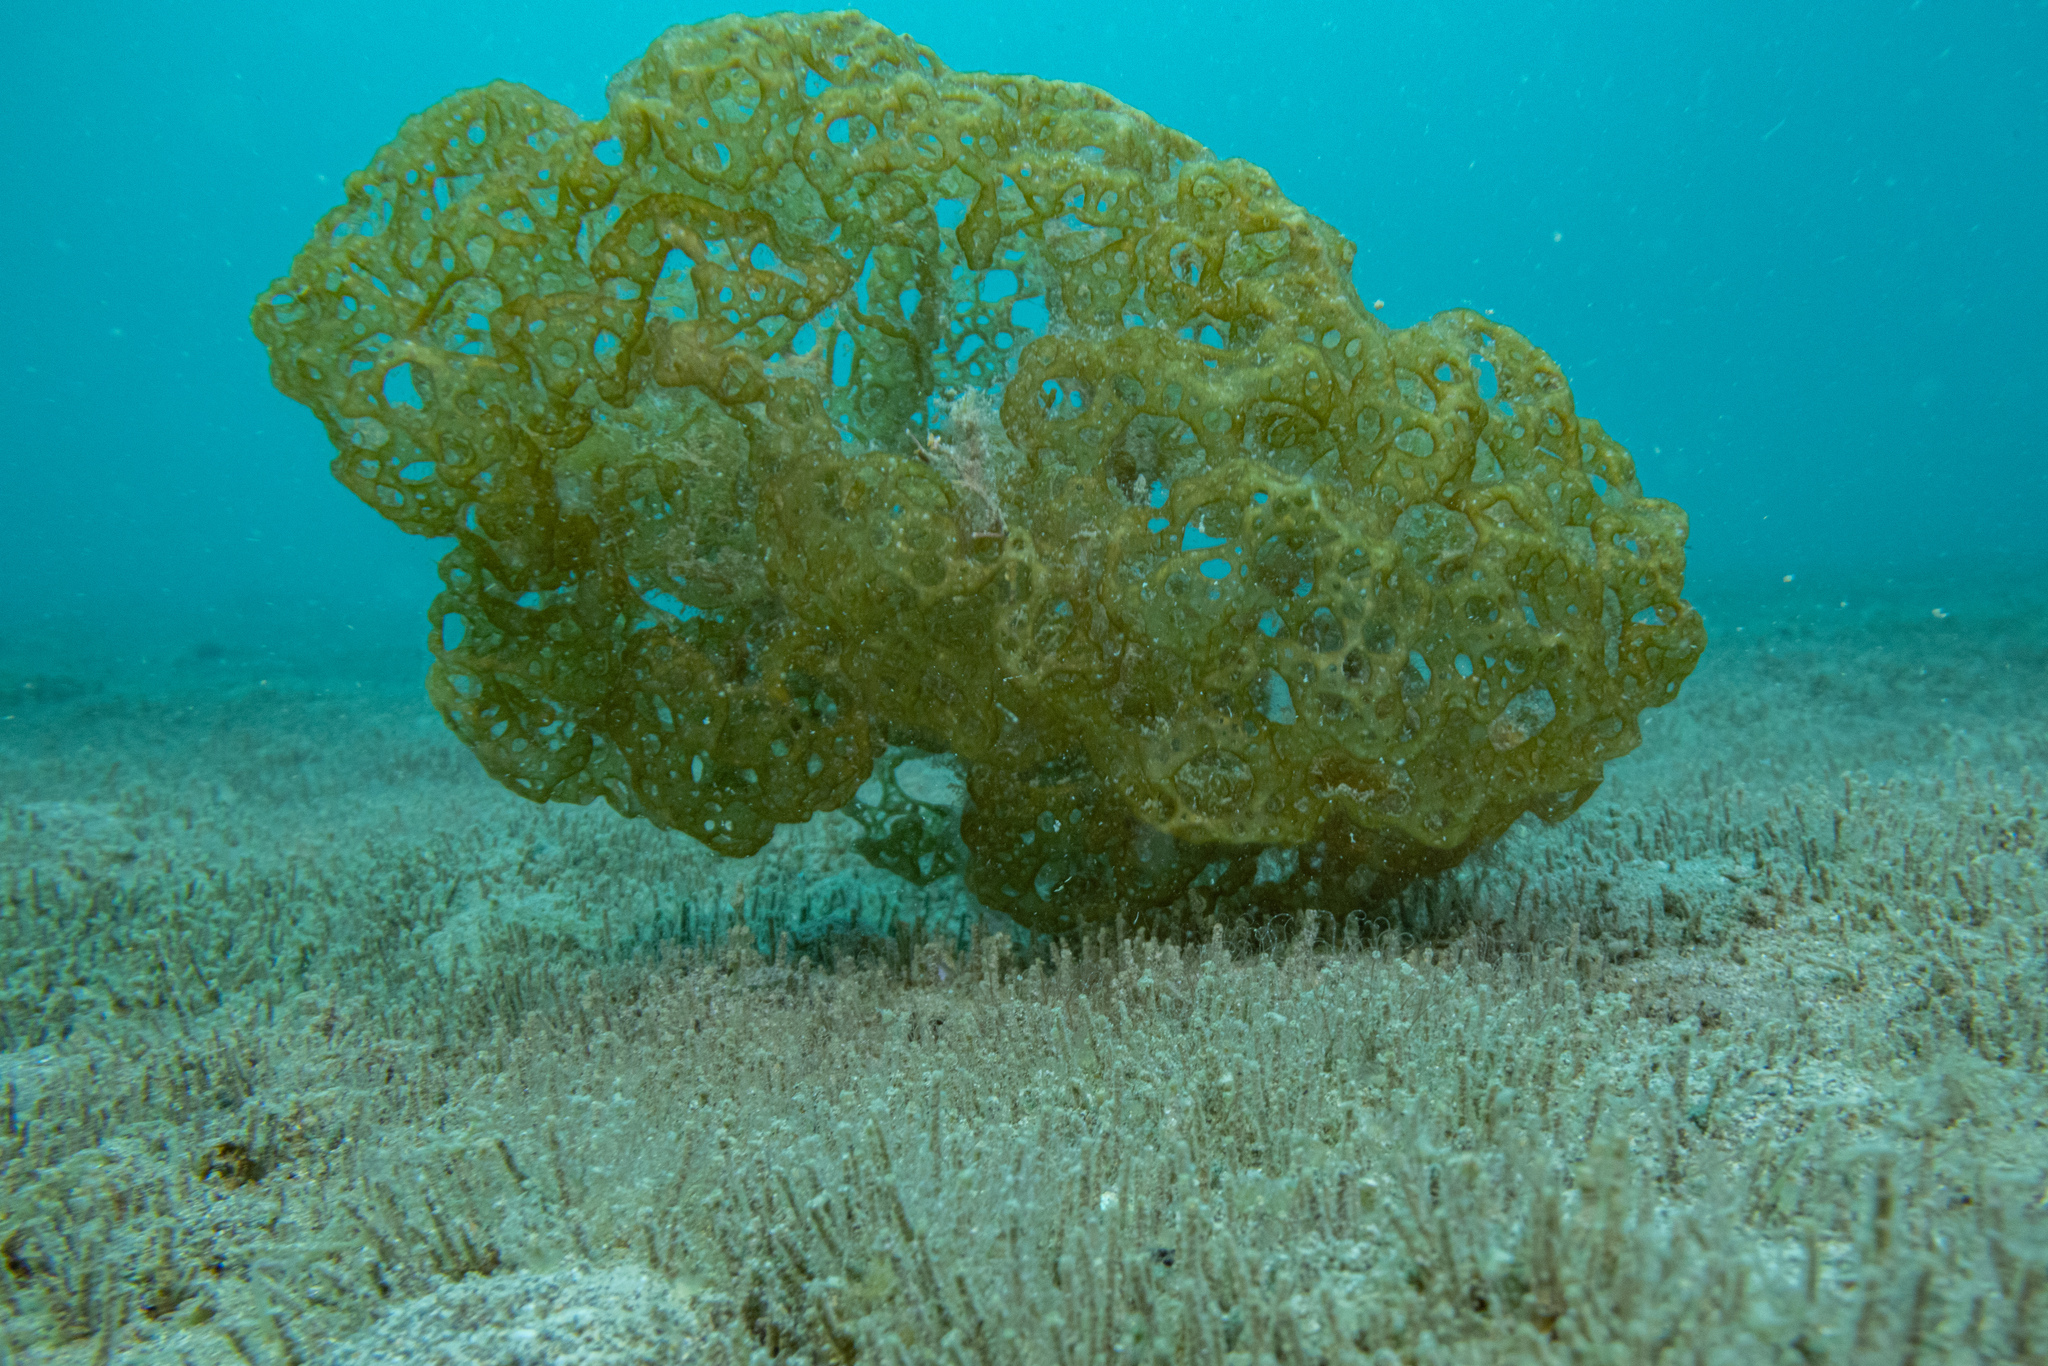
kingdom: Chromista
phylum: Ochrophyta
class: Phaeophyceae
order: Scytosiphonales
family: Scytosiphonaceae
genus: Hydroclathrus
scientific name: Hydroclathrus clathratus
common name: Swiss cheese algae
